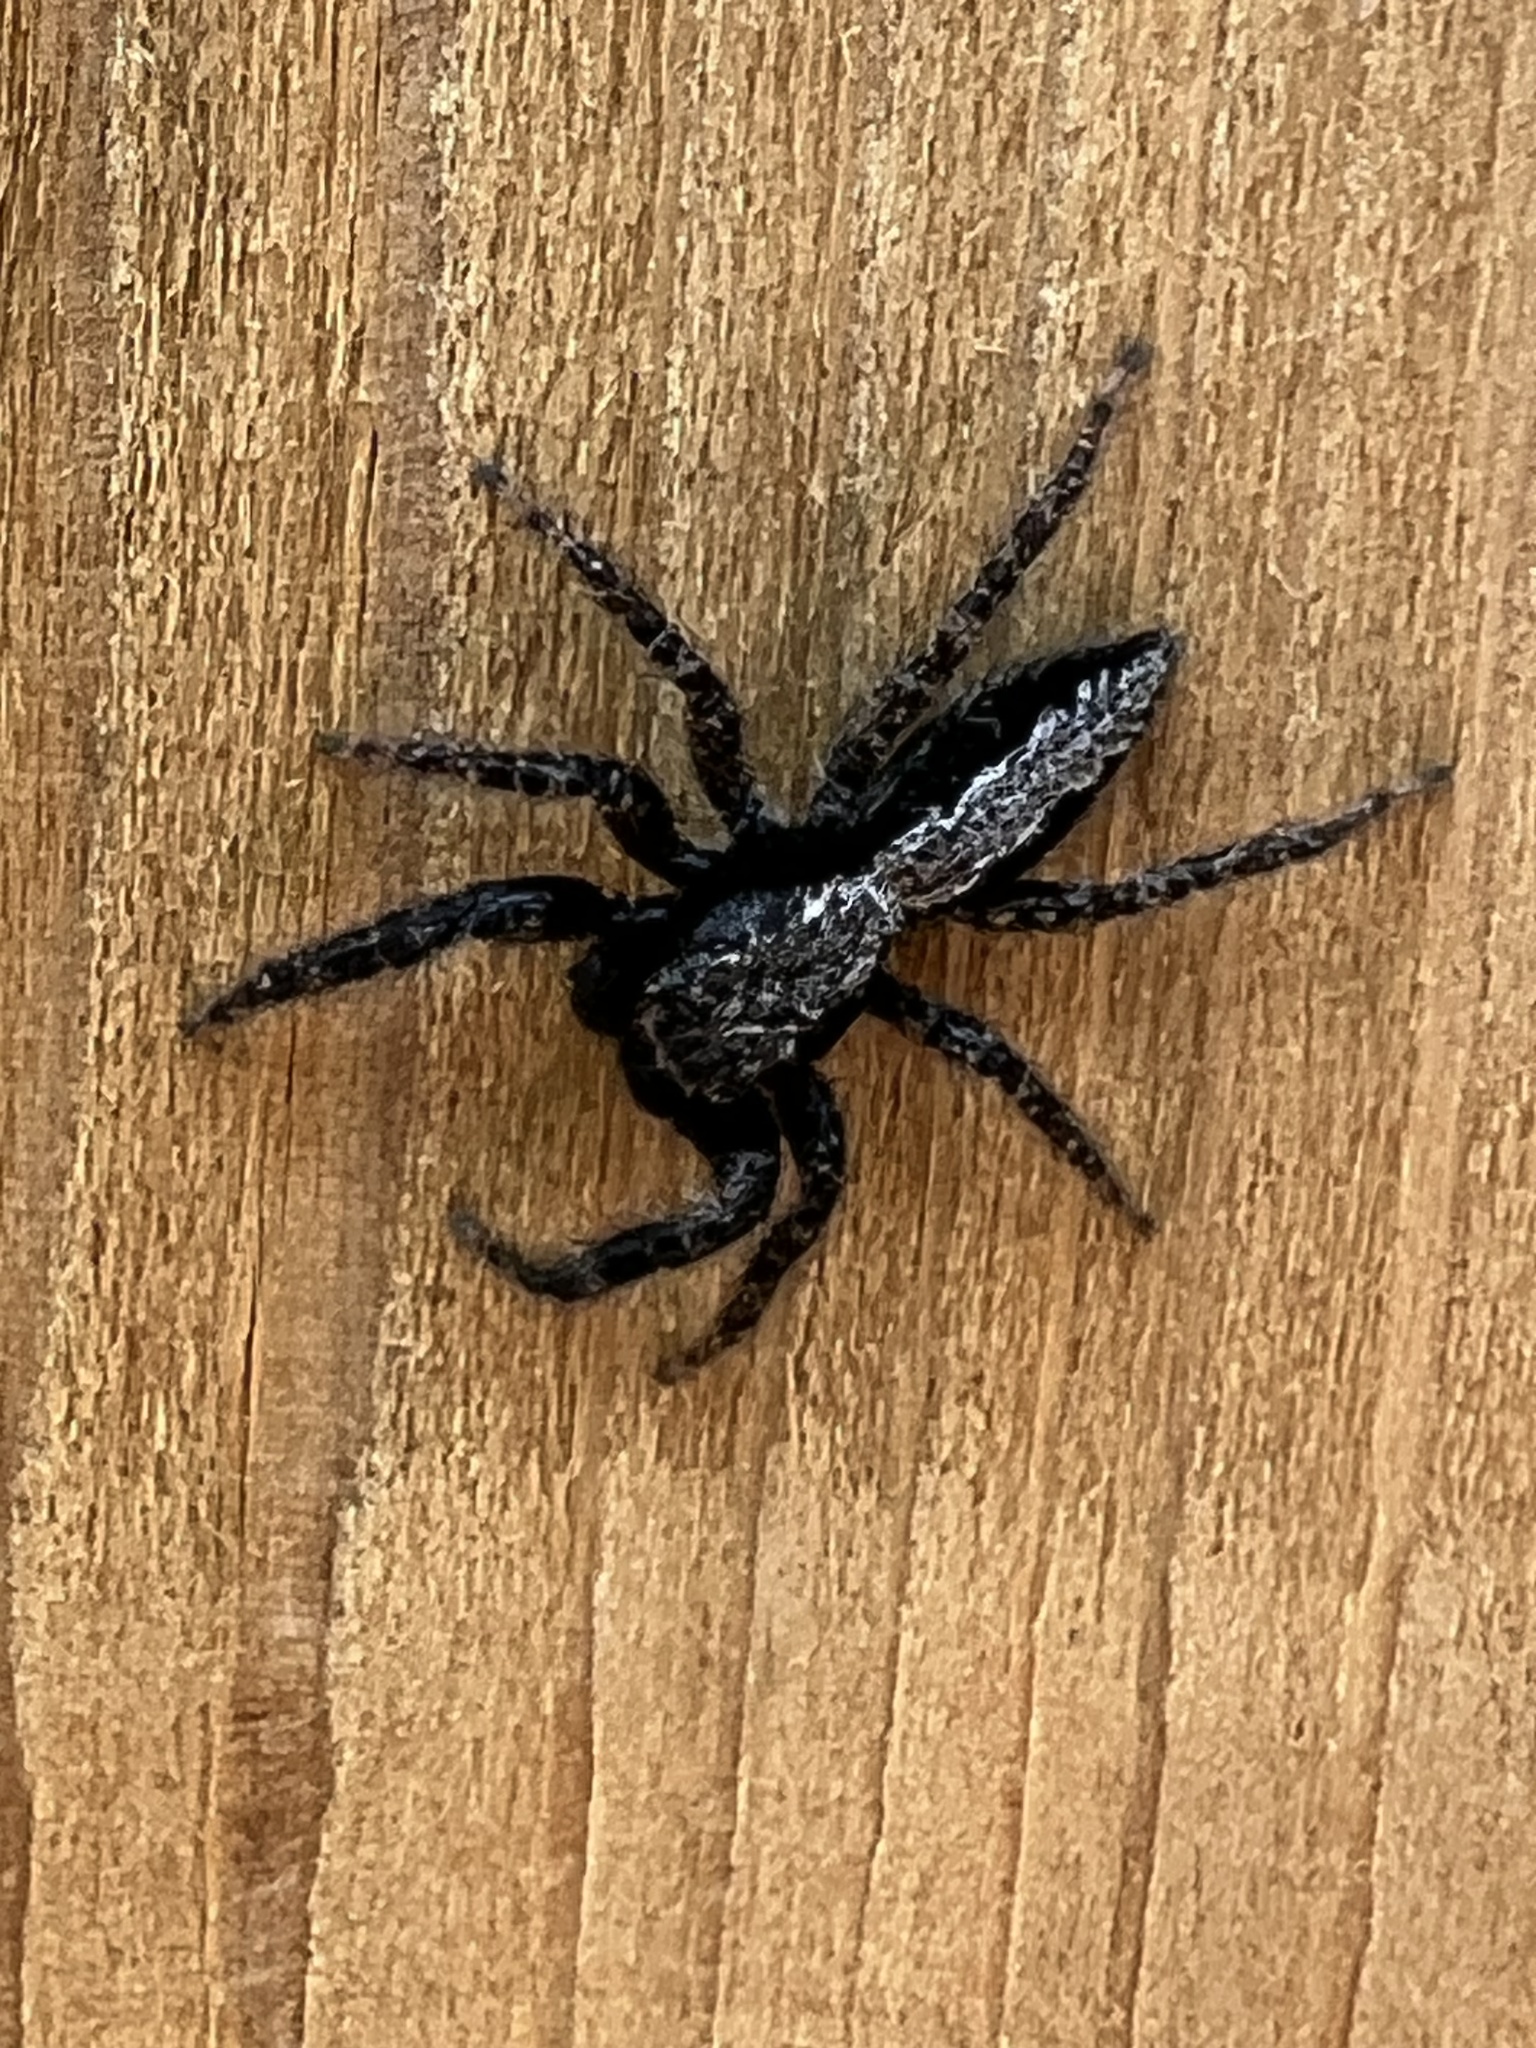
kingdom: Animalia
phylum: Arthropoda
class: Arachnida
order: Araneae
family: Salticidae
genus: Platycryptus
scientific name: Platycryptus californicus
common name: Jumping spiders
